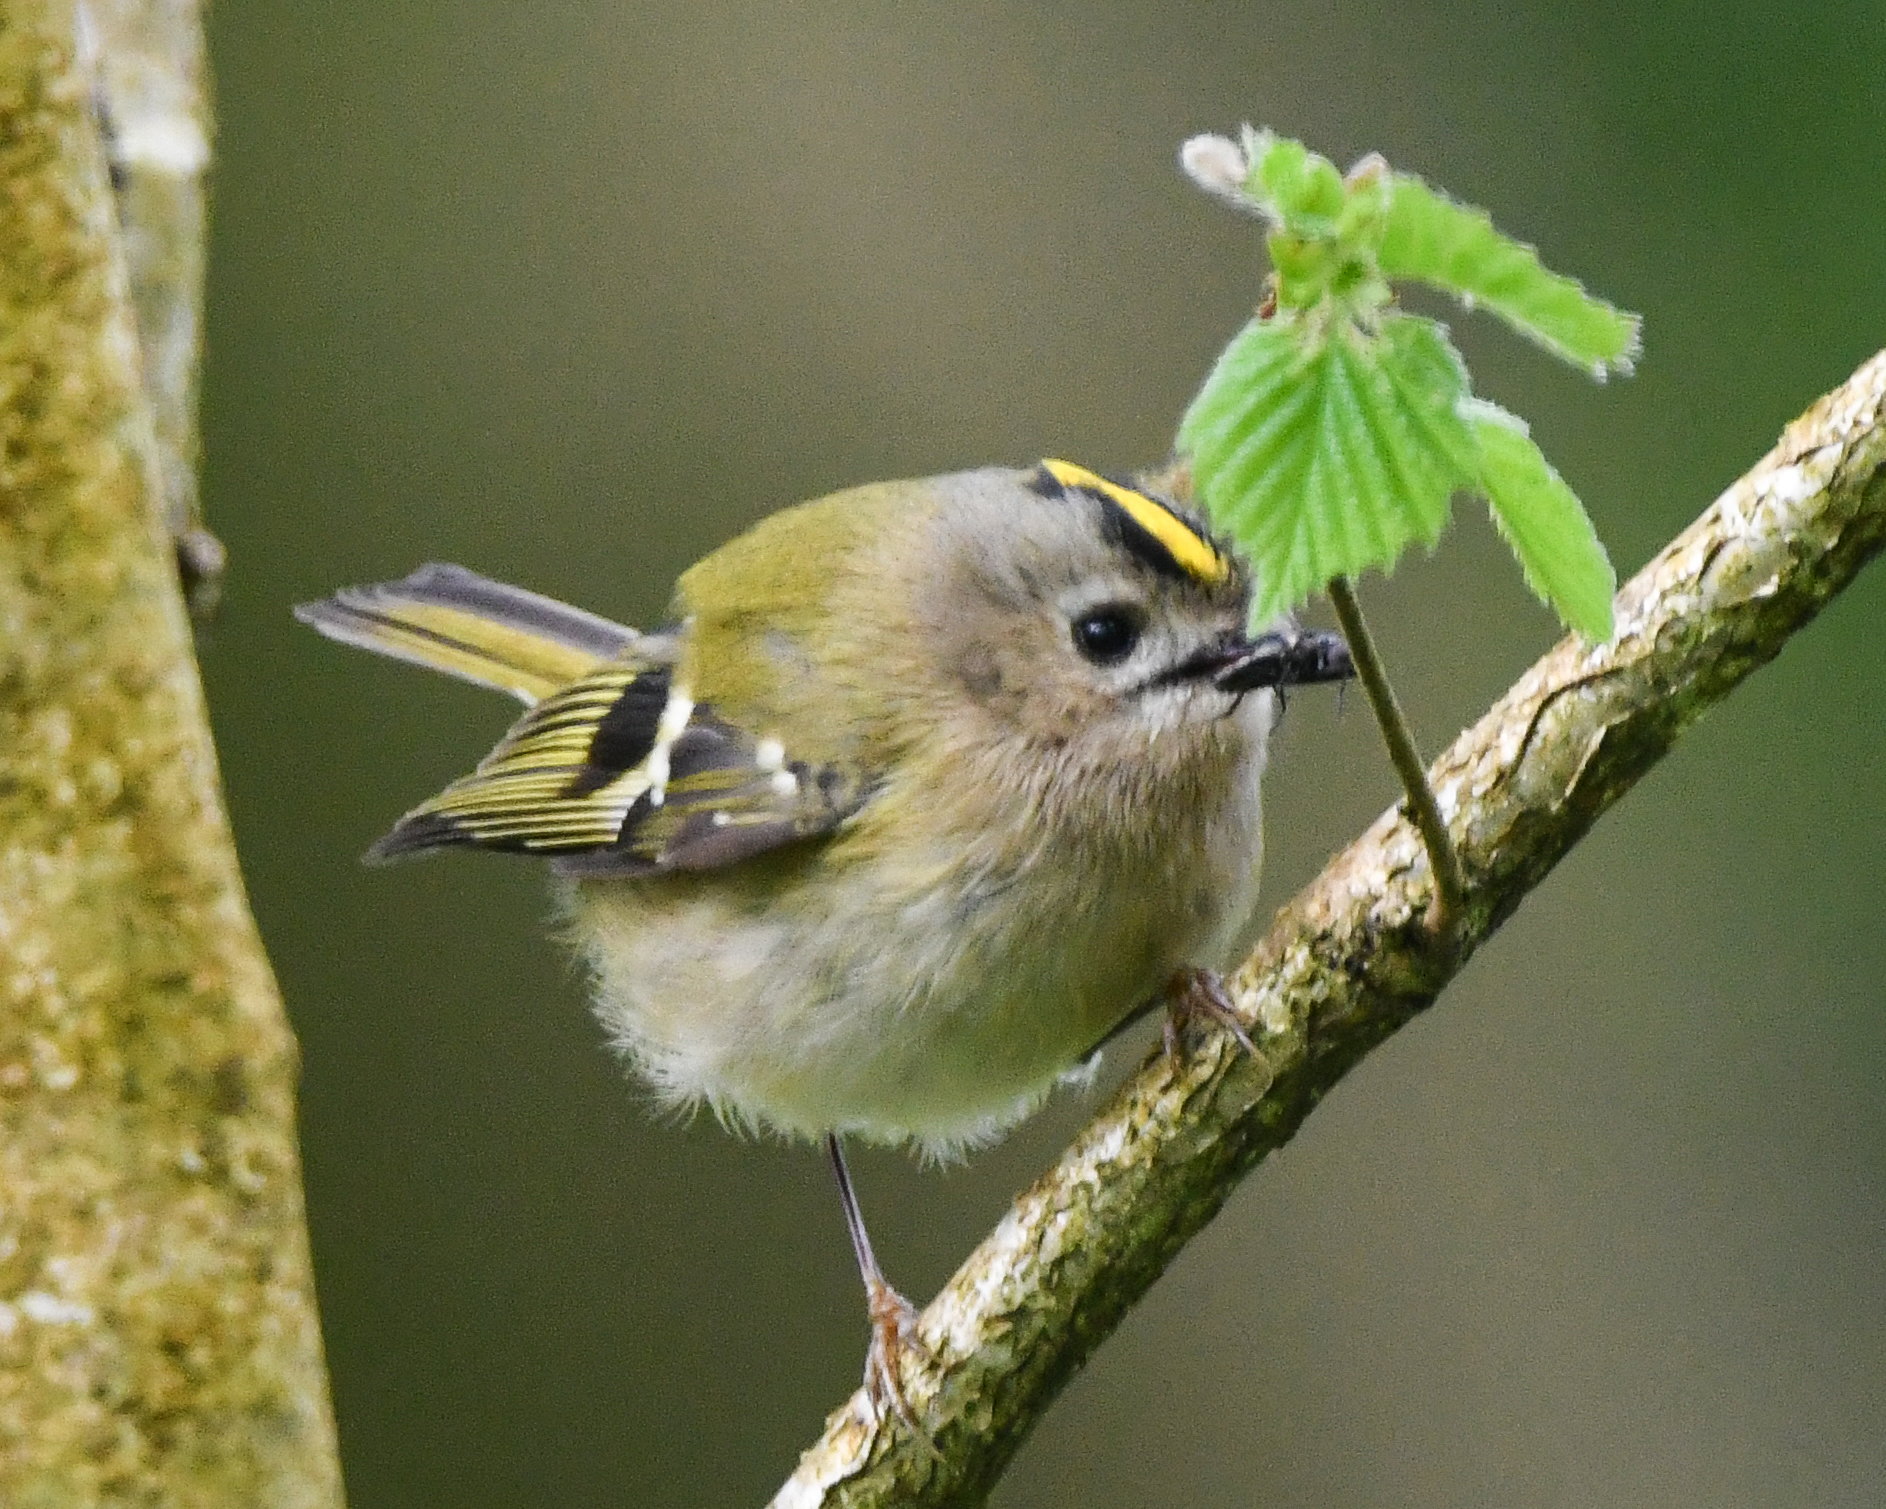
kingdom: Animalia
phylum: Chordata
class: Aves
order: Passeriformes
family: Regulidae
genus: Regulus
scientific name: Regulus regulus
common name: Goldcrest
